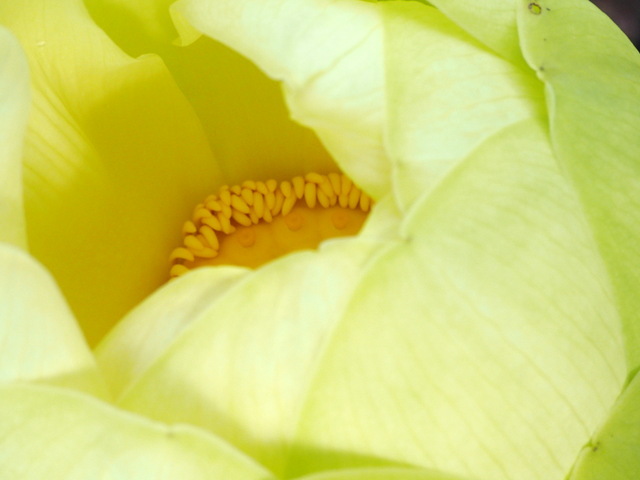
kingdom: Plantae
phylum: Tracheophyta
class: Magnoliopsida
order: Proteales
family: Nelumbonaceae
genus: Nelumbo
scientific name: Nelumbo lutea
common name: American lotus
